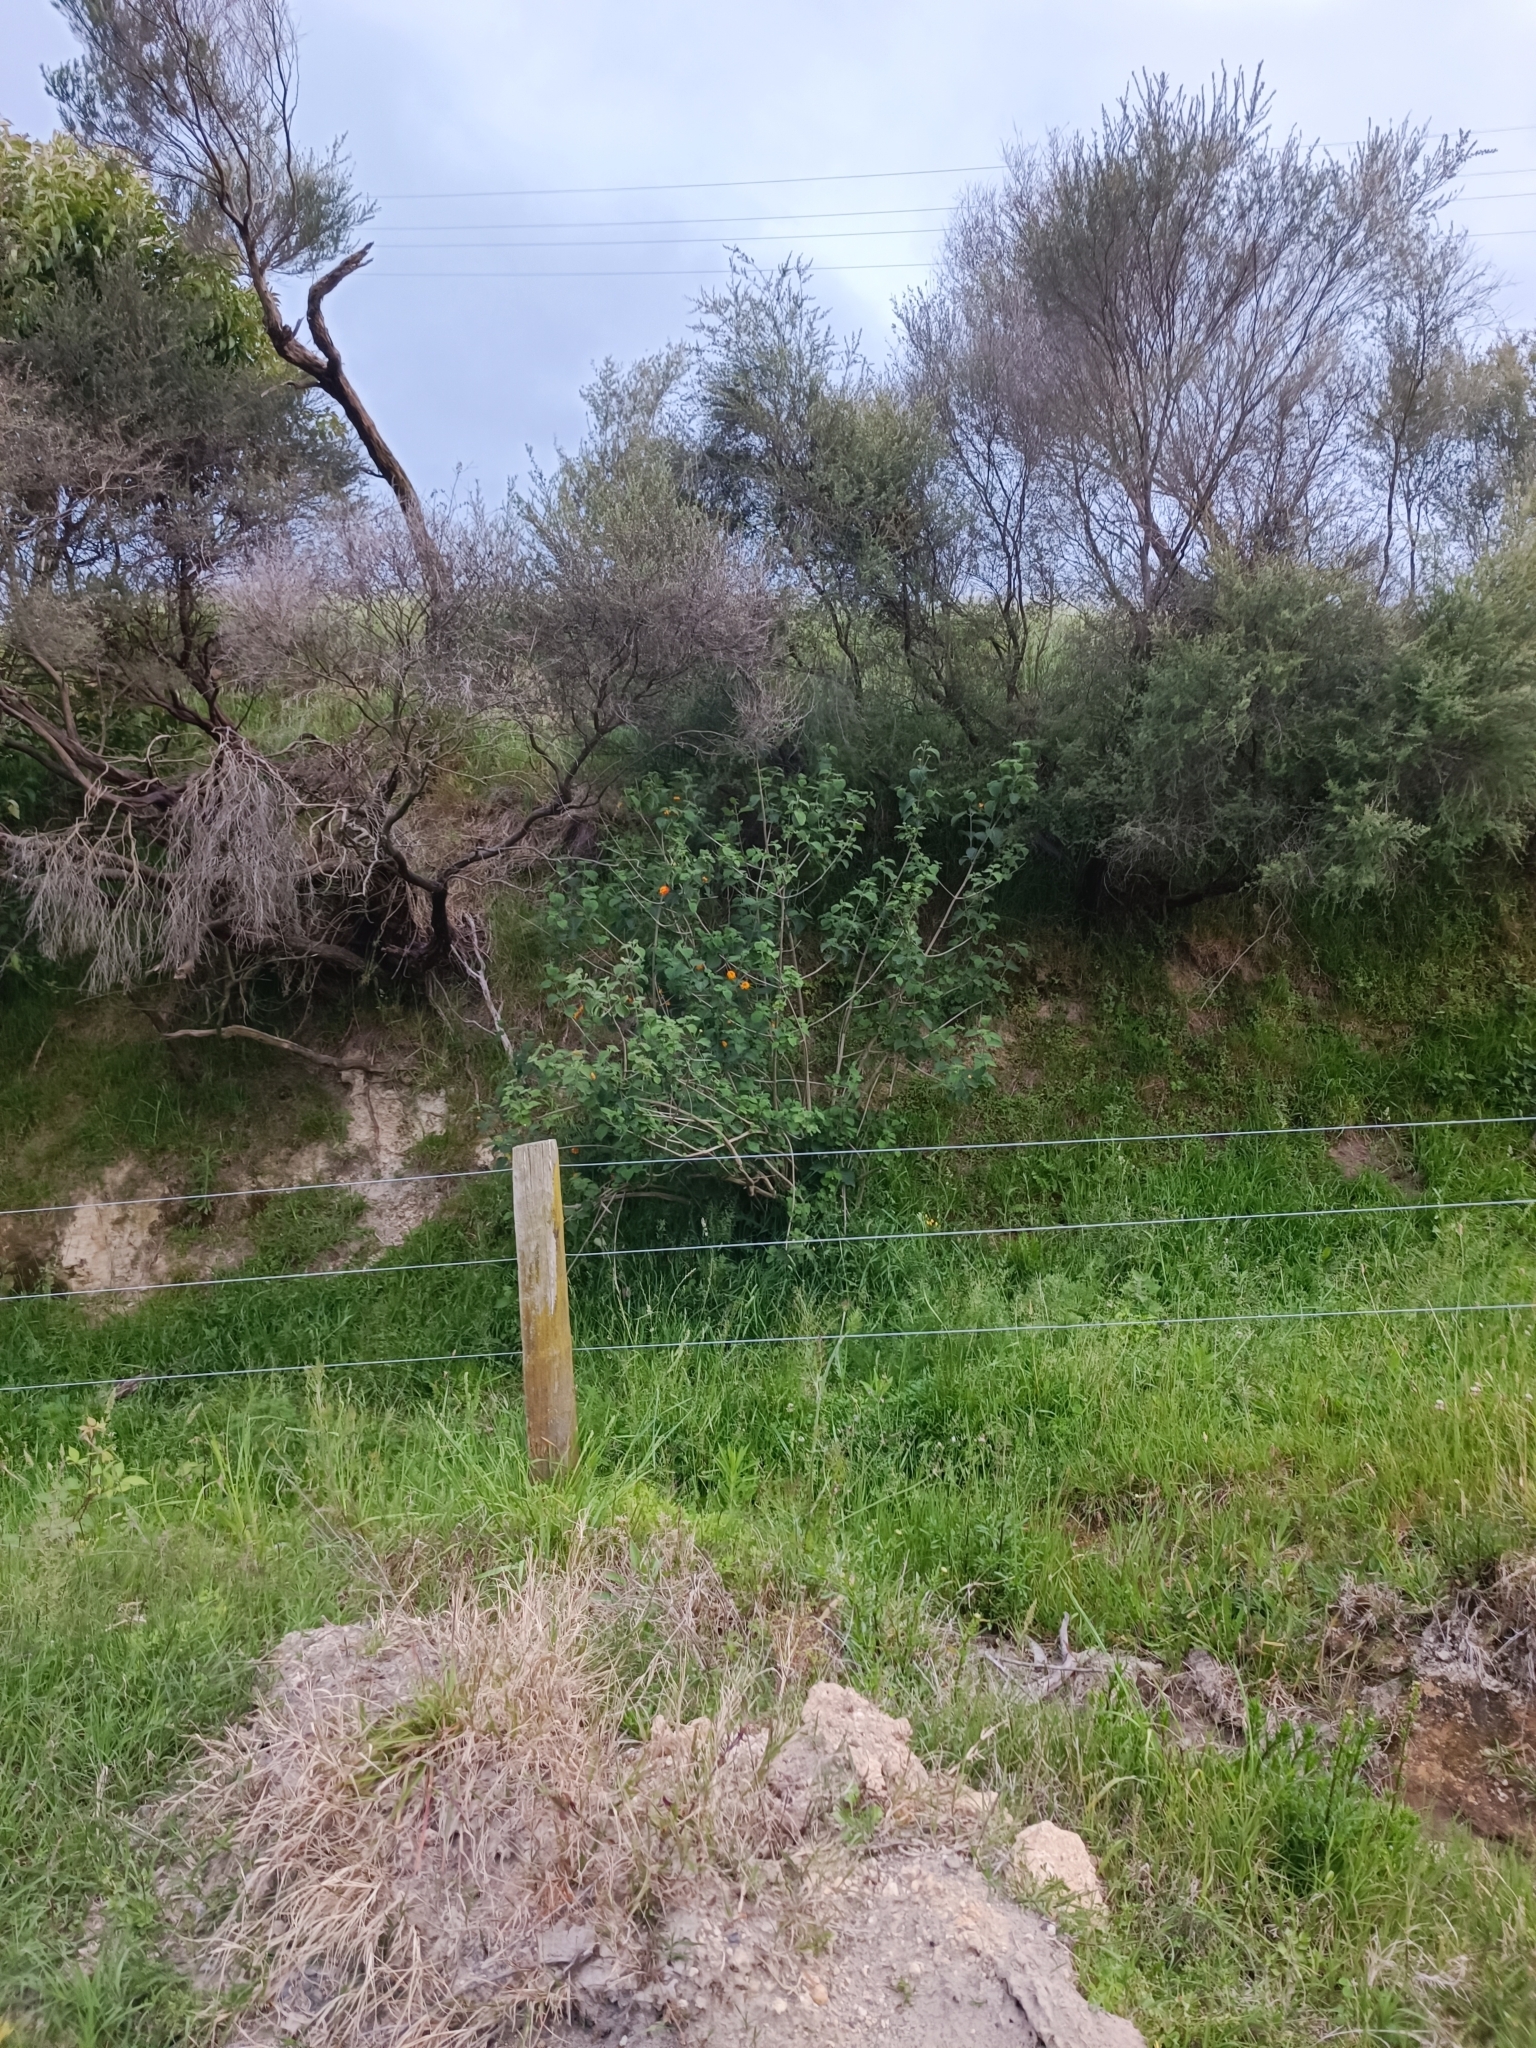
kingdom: Plantae
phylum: Tracheophyta
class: Magnoliopsida
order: Lamiales
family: Verbenaceae
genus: Lantana
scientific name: Lantana camara
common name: Lantana
